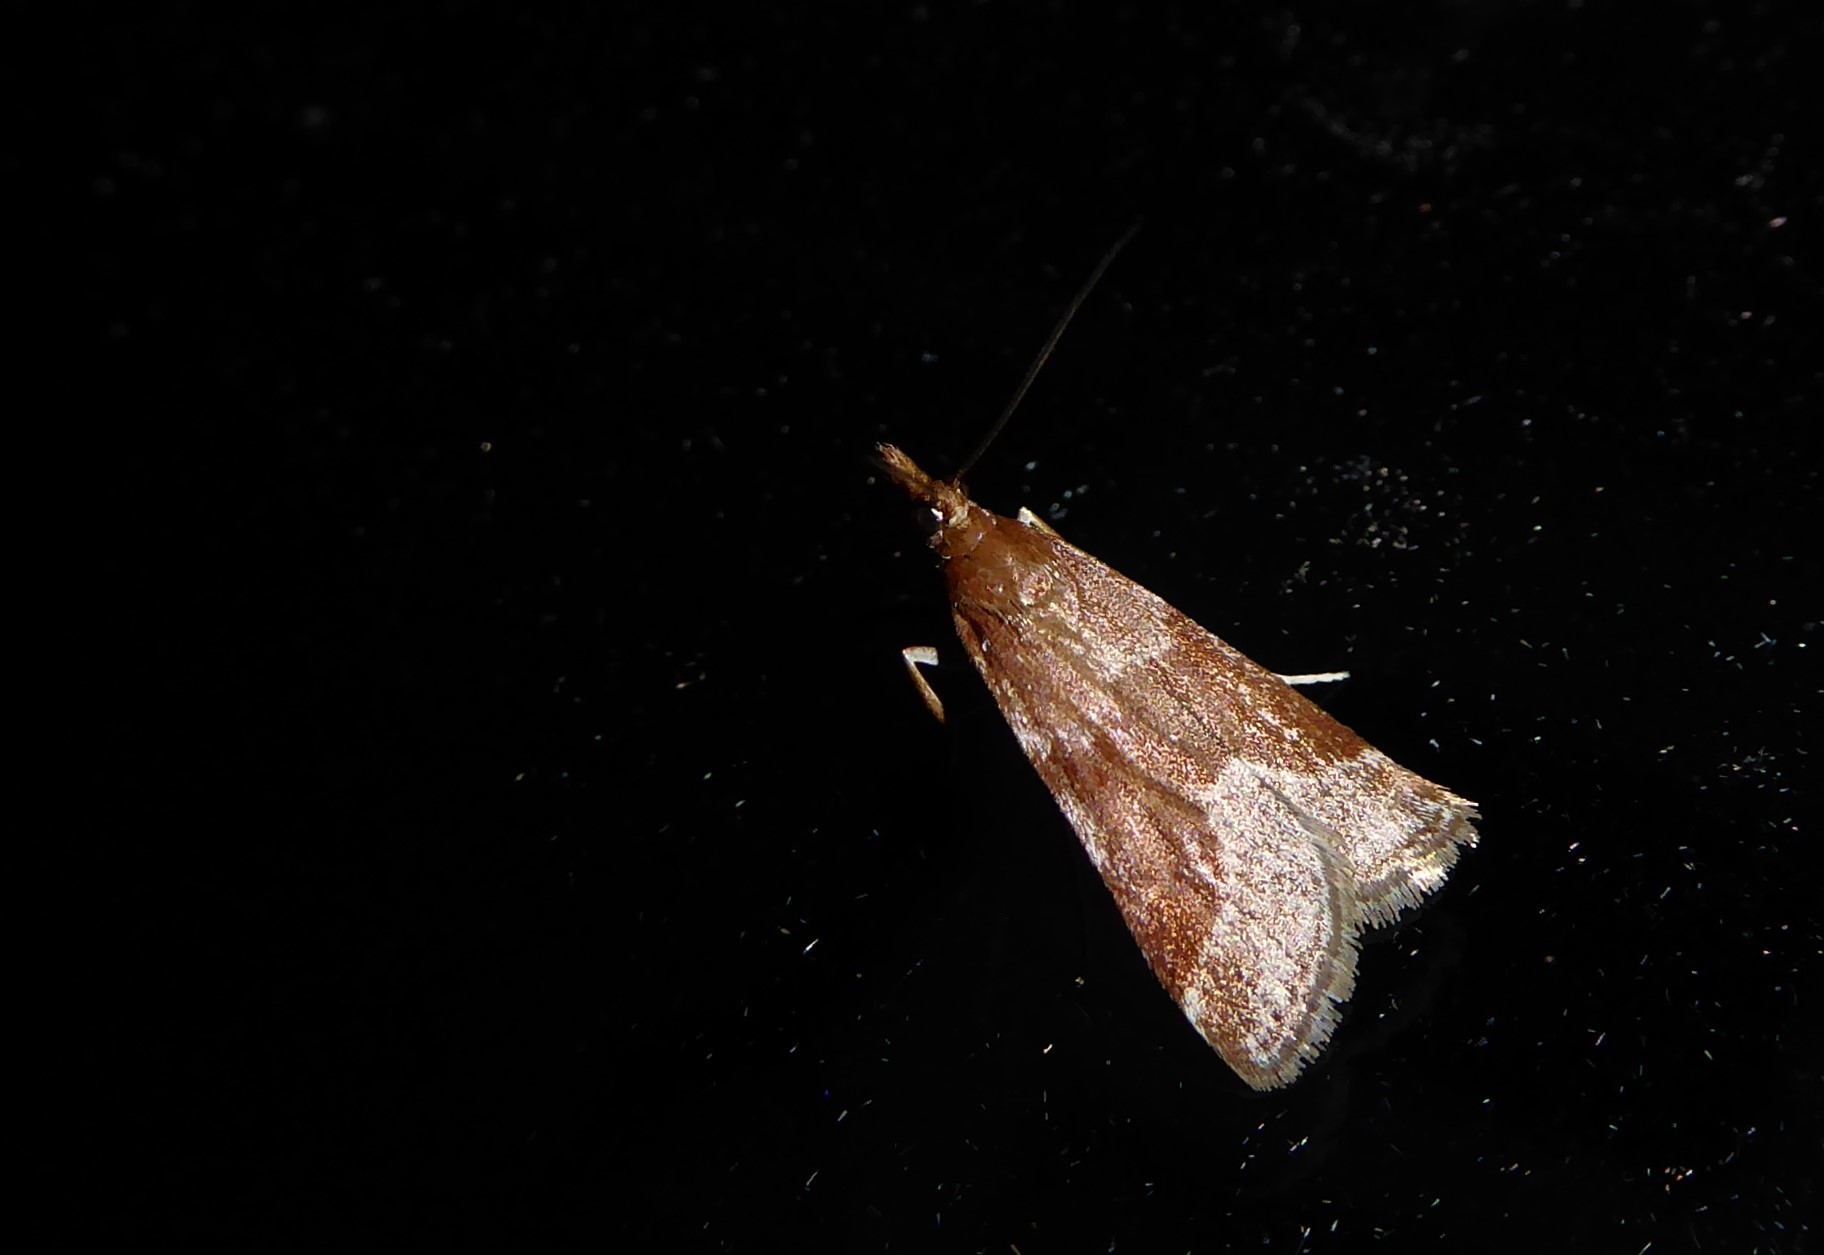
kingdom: Animalia
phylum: Arthropoda
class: Insecta
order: Lepidoptera
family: Crambidae
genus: Eudonia
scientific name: Eudonia feredayi
